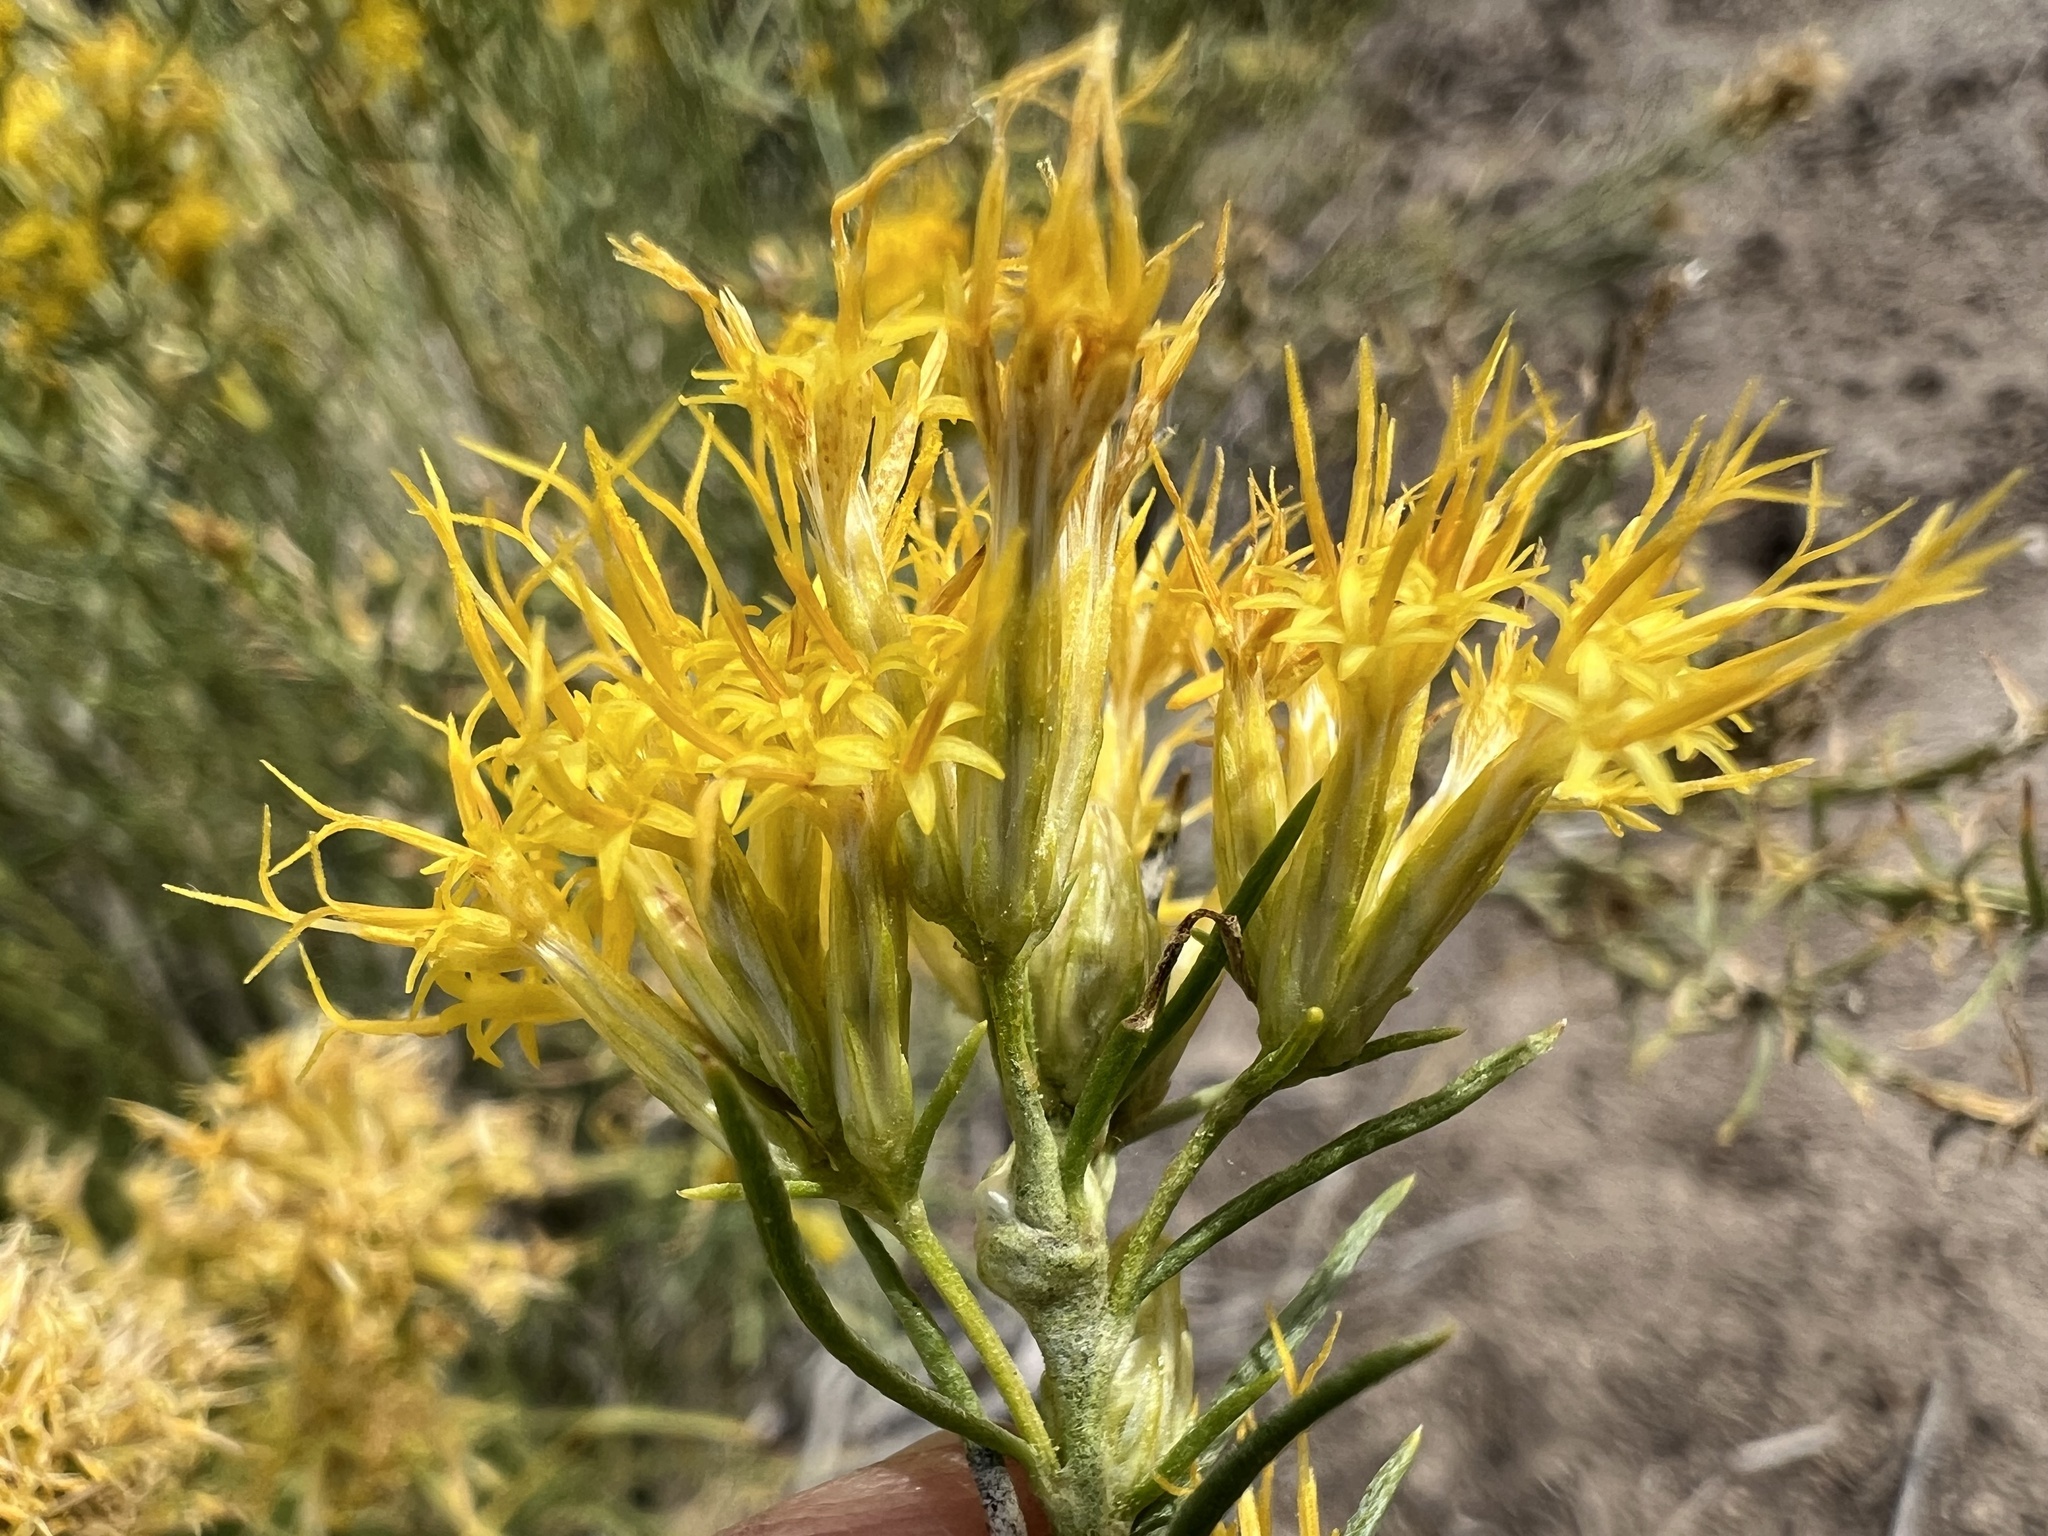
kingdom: Plantae
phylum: Tracheophyta
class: Magnoliopsida
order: Asterales
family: Asteraceae
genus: Ericameria
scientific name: Ericameria nauseosa
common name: Rubber rabbitbrush
